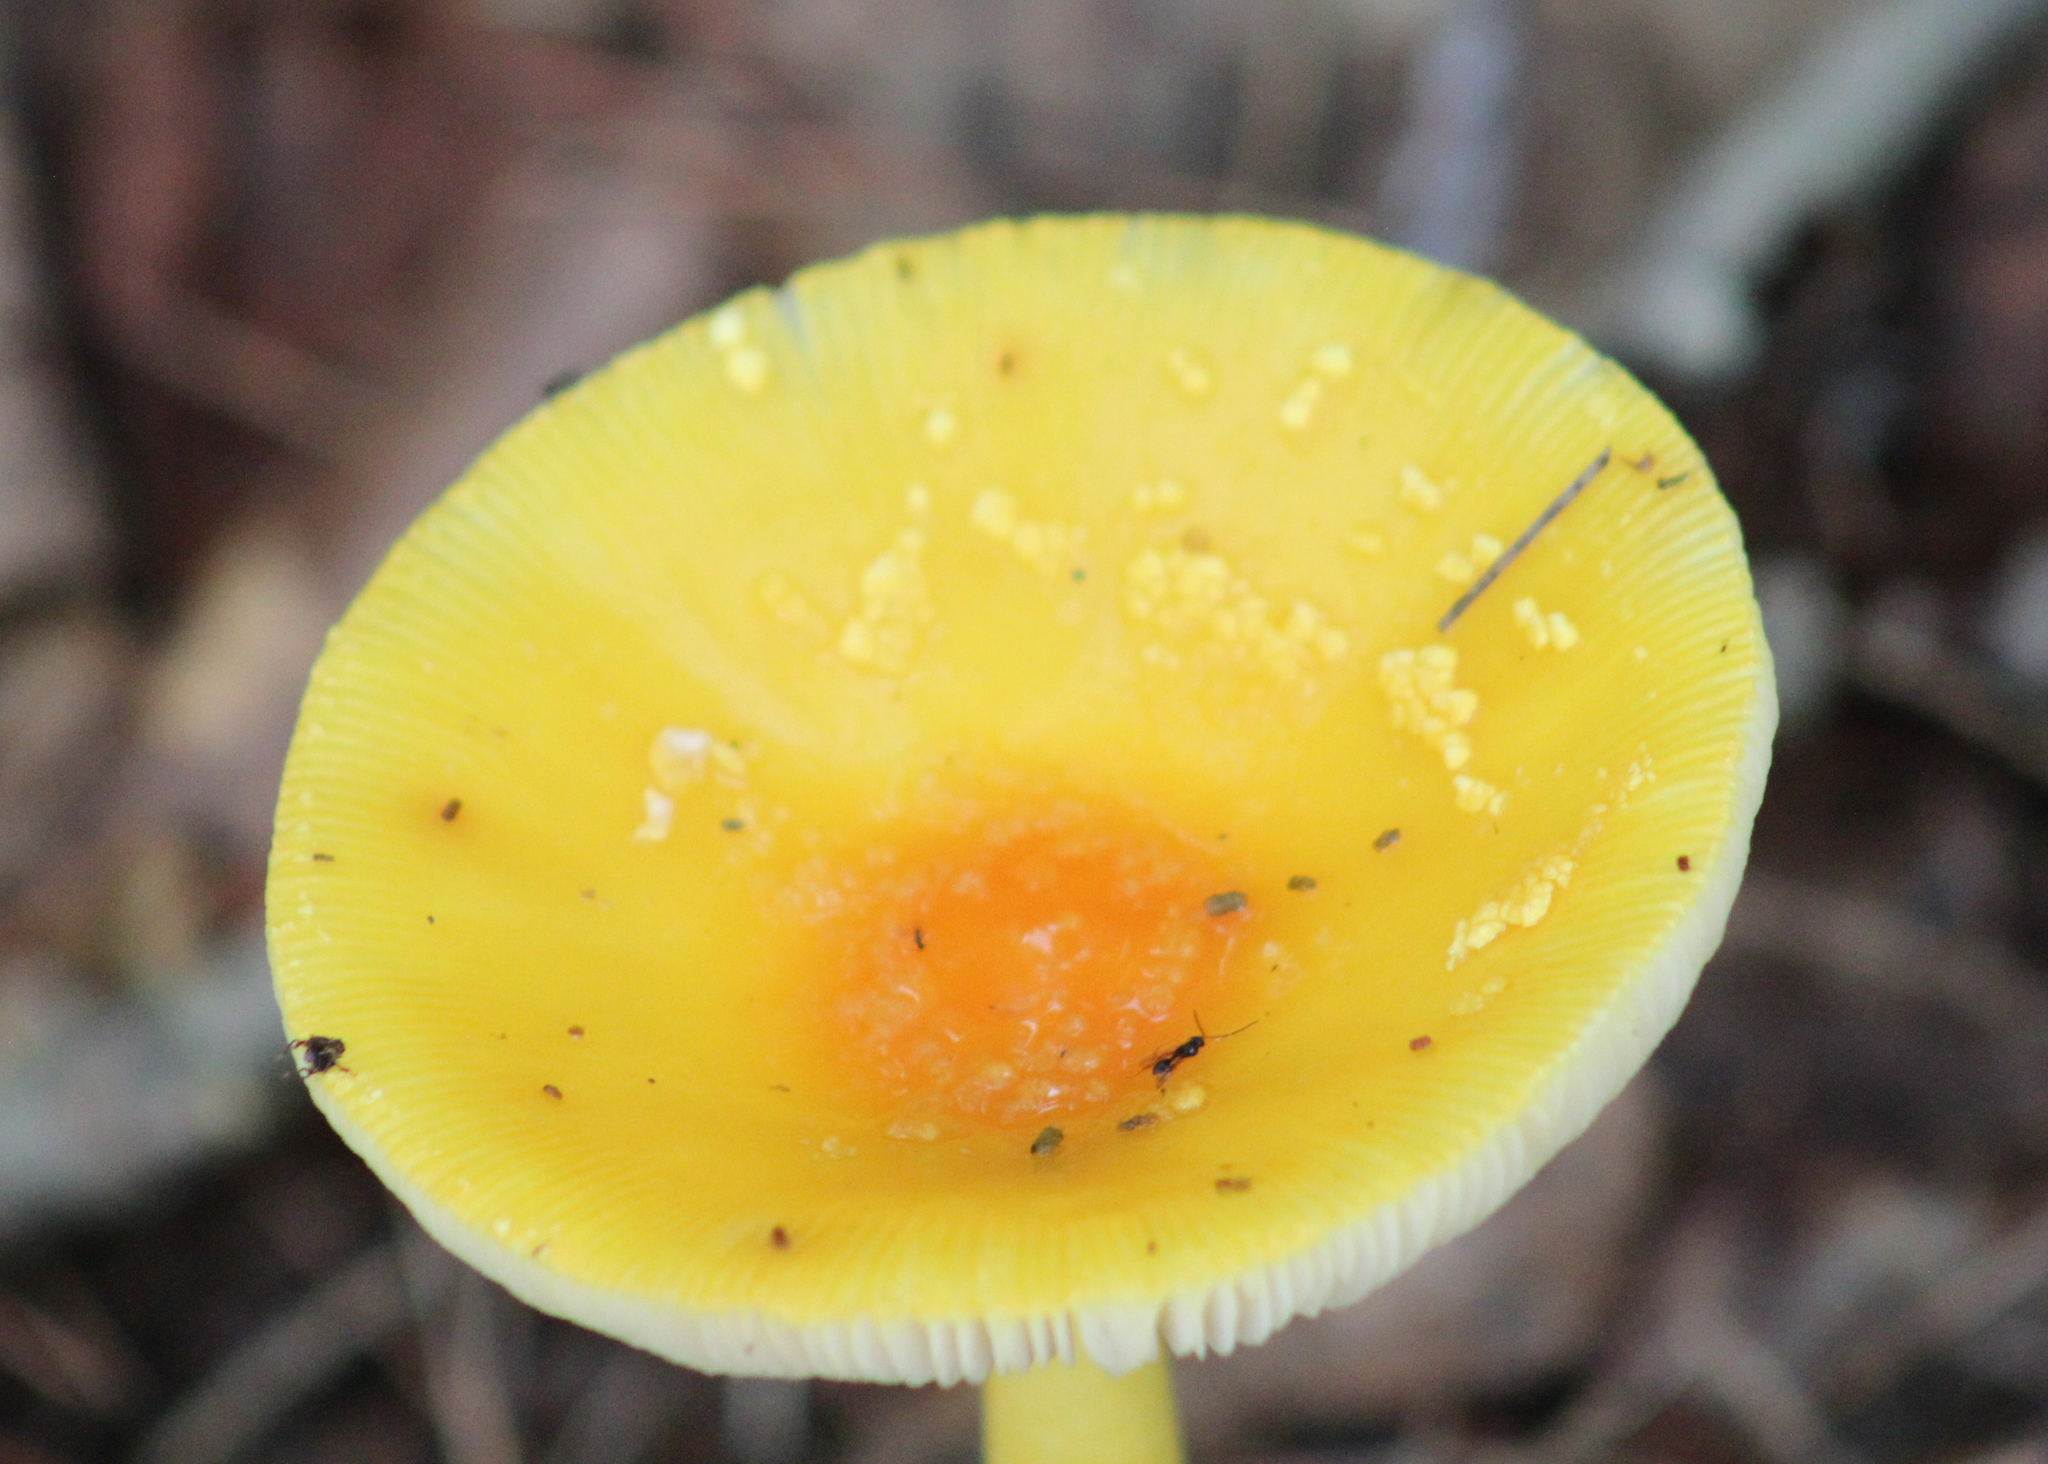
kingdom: Fungi
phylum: Basidiomycota
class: Agaricomycetes
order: Agaricales
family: Amanitaceae
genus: Amanita
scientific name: Amanita frostiana
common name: Frost's amanita
